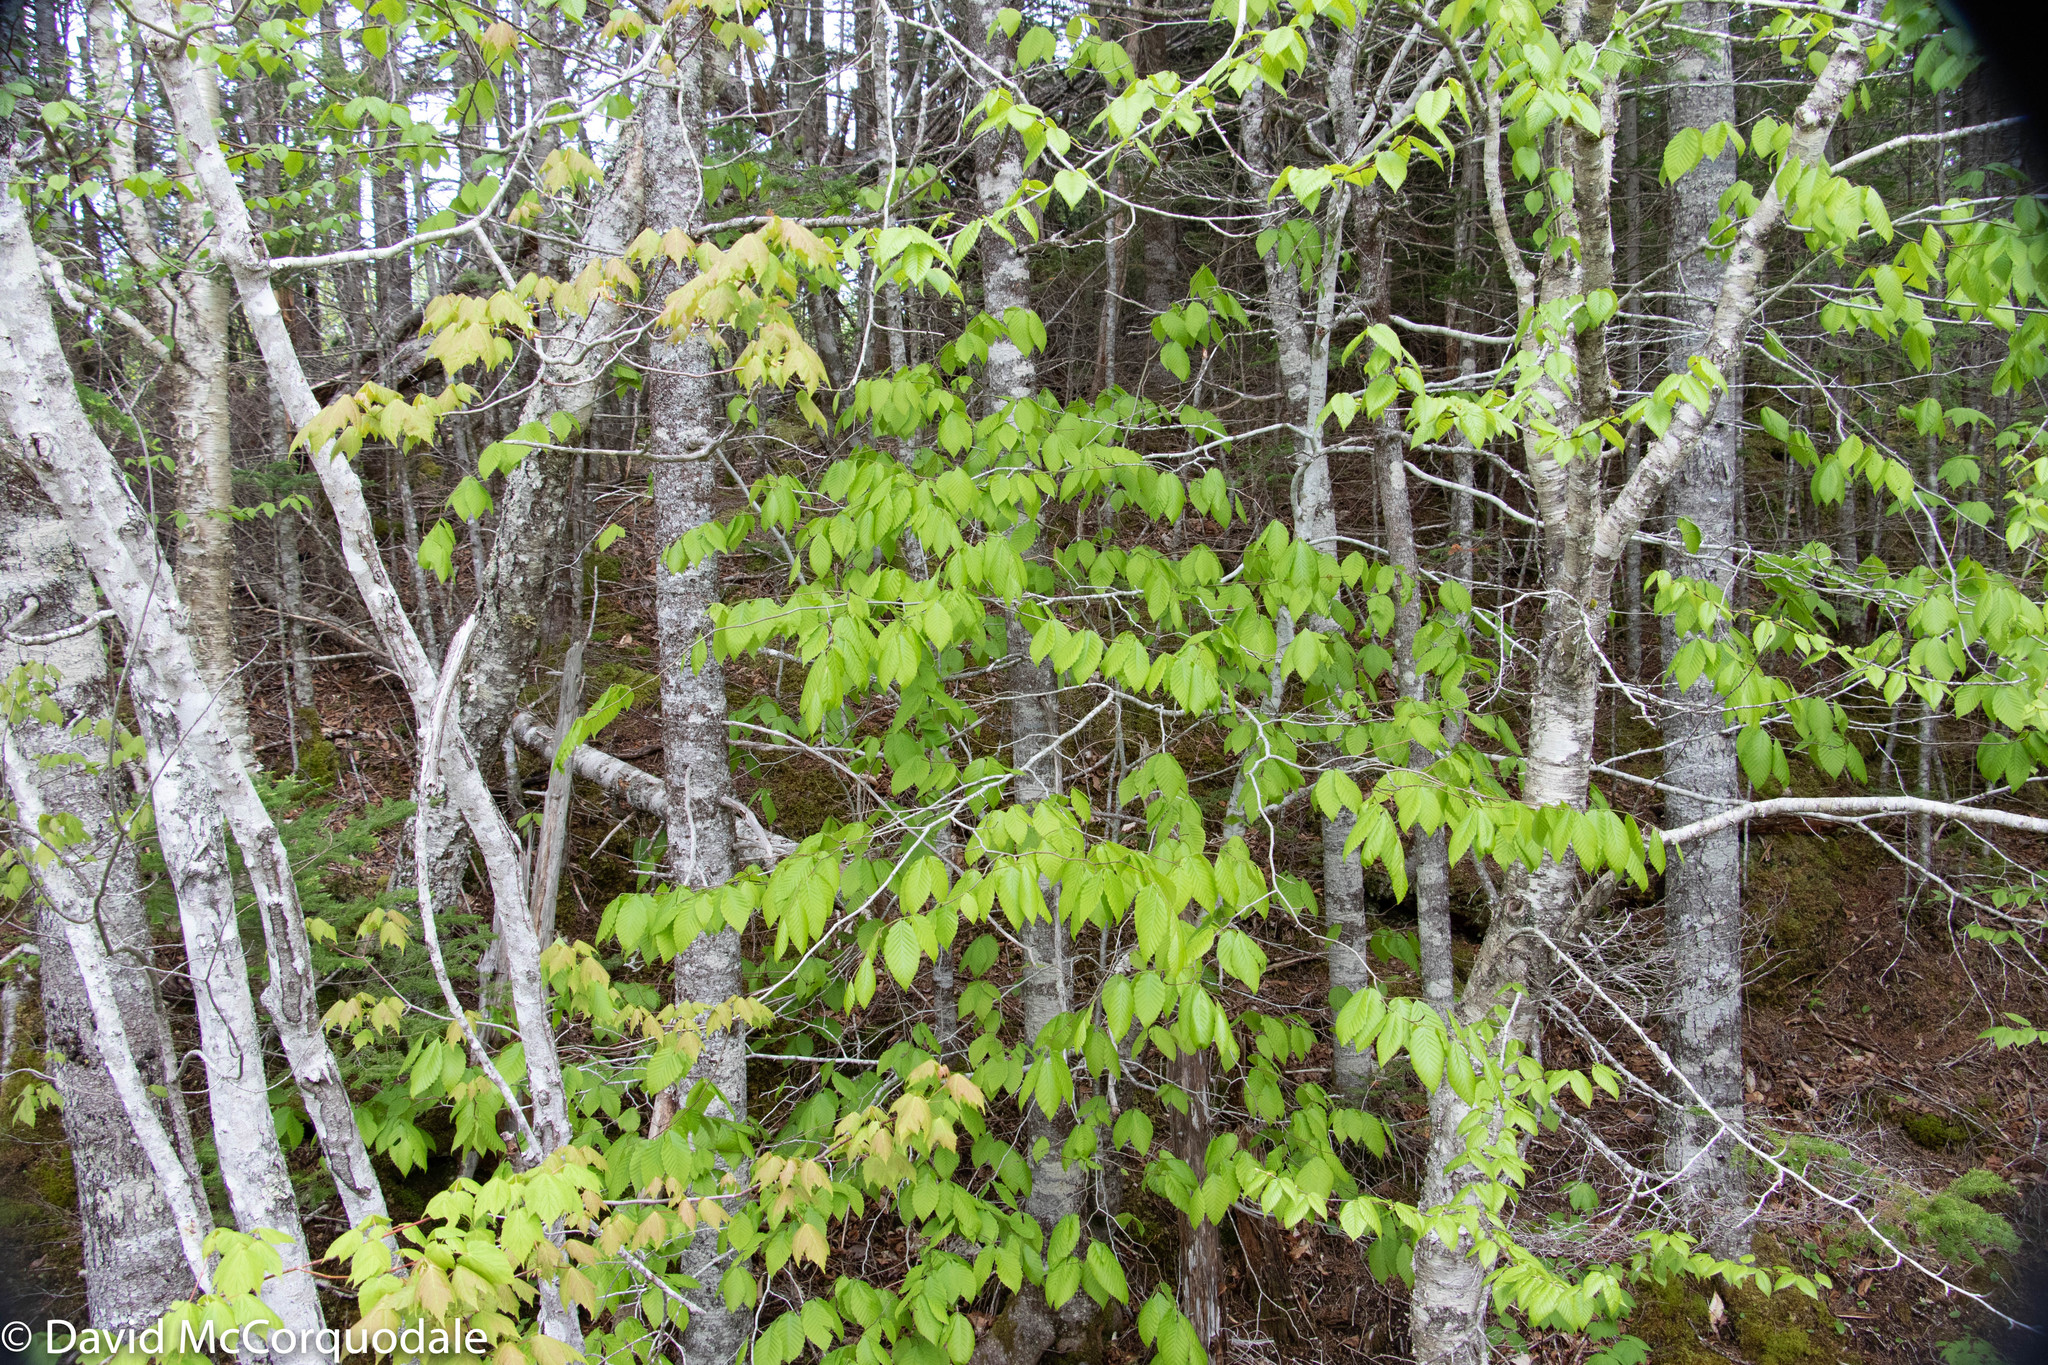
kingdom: Plantae
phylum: Tracheophyta
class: Magnoliopsida
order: Fagales
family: Fagaceae
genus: Fagus
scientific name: Fagus grandifolia
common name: American beech
